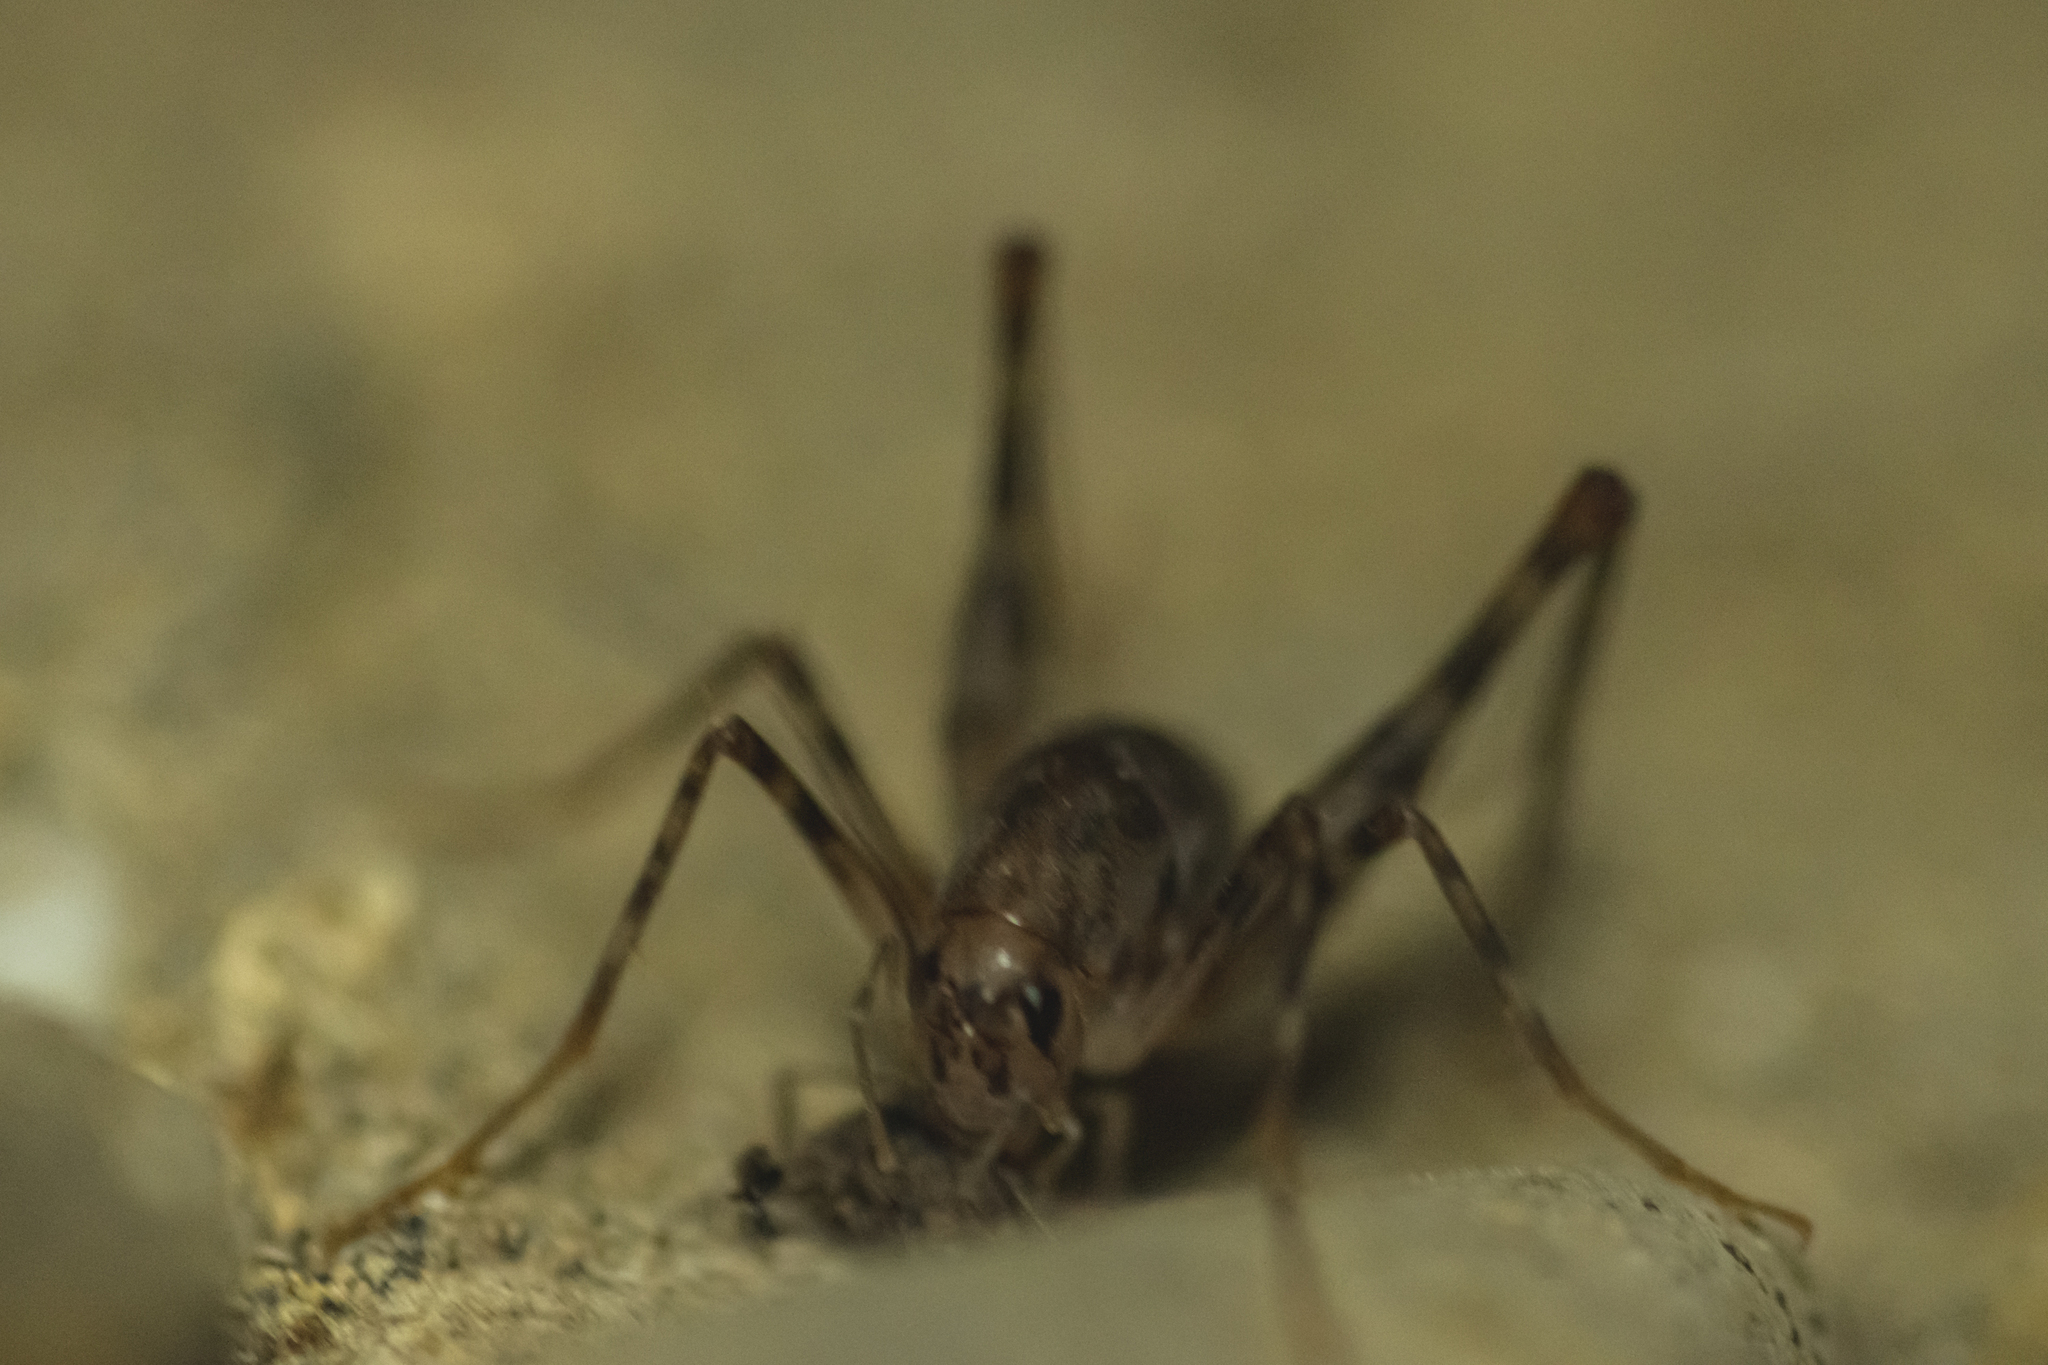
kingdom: Animalia
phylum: Arthropoda
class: Insecta
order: Orthoptera
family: Rhaphidophoridae
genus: Tachycines
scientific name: Tachycines asynamorus
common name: Greenhouse camel cricket
